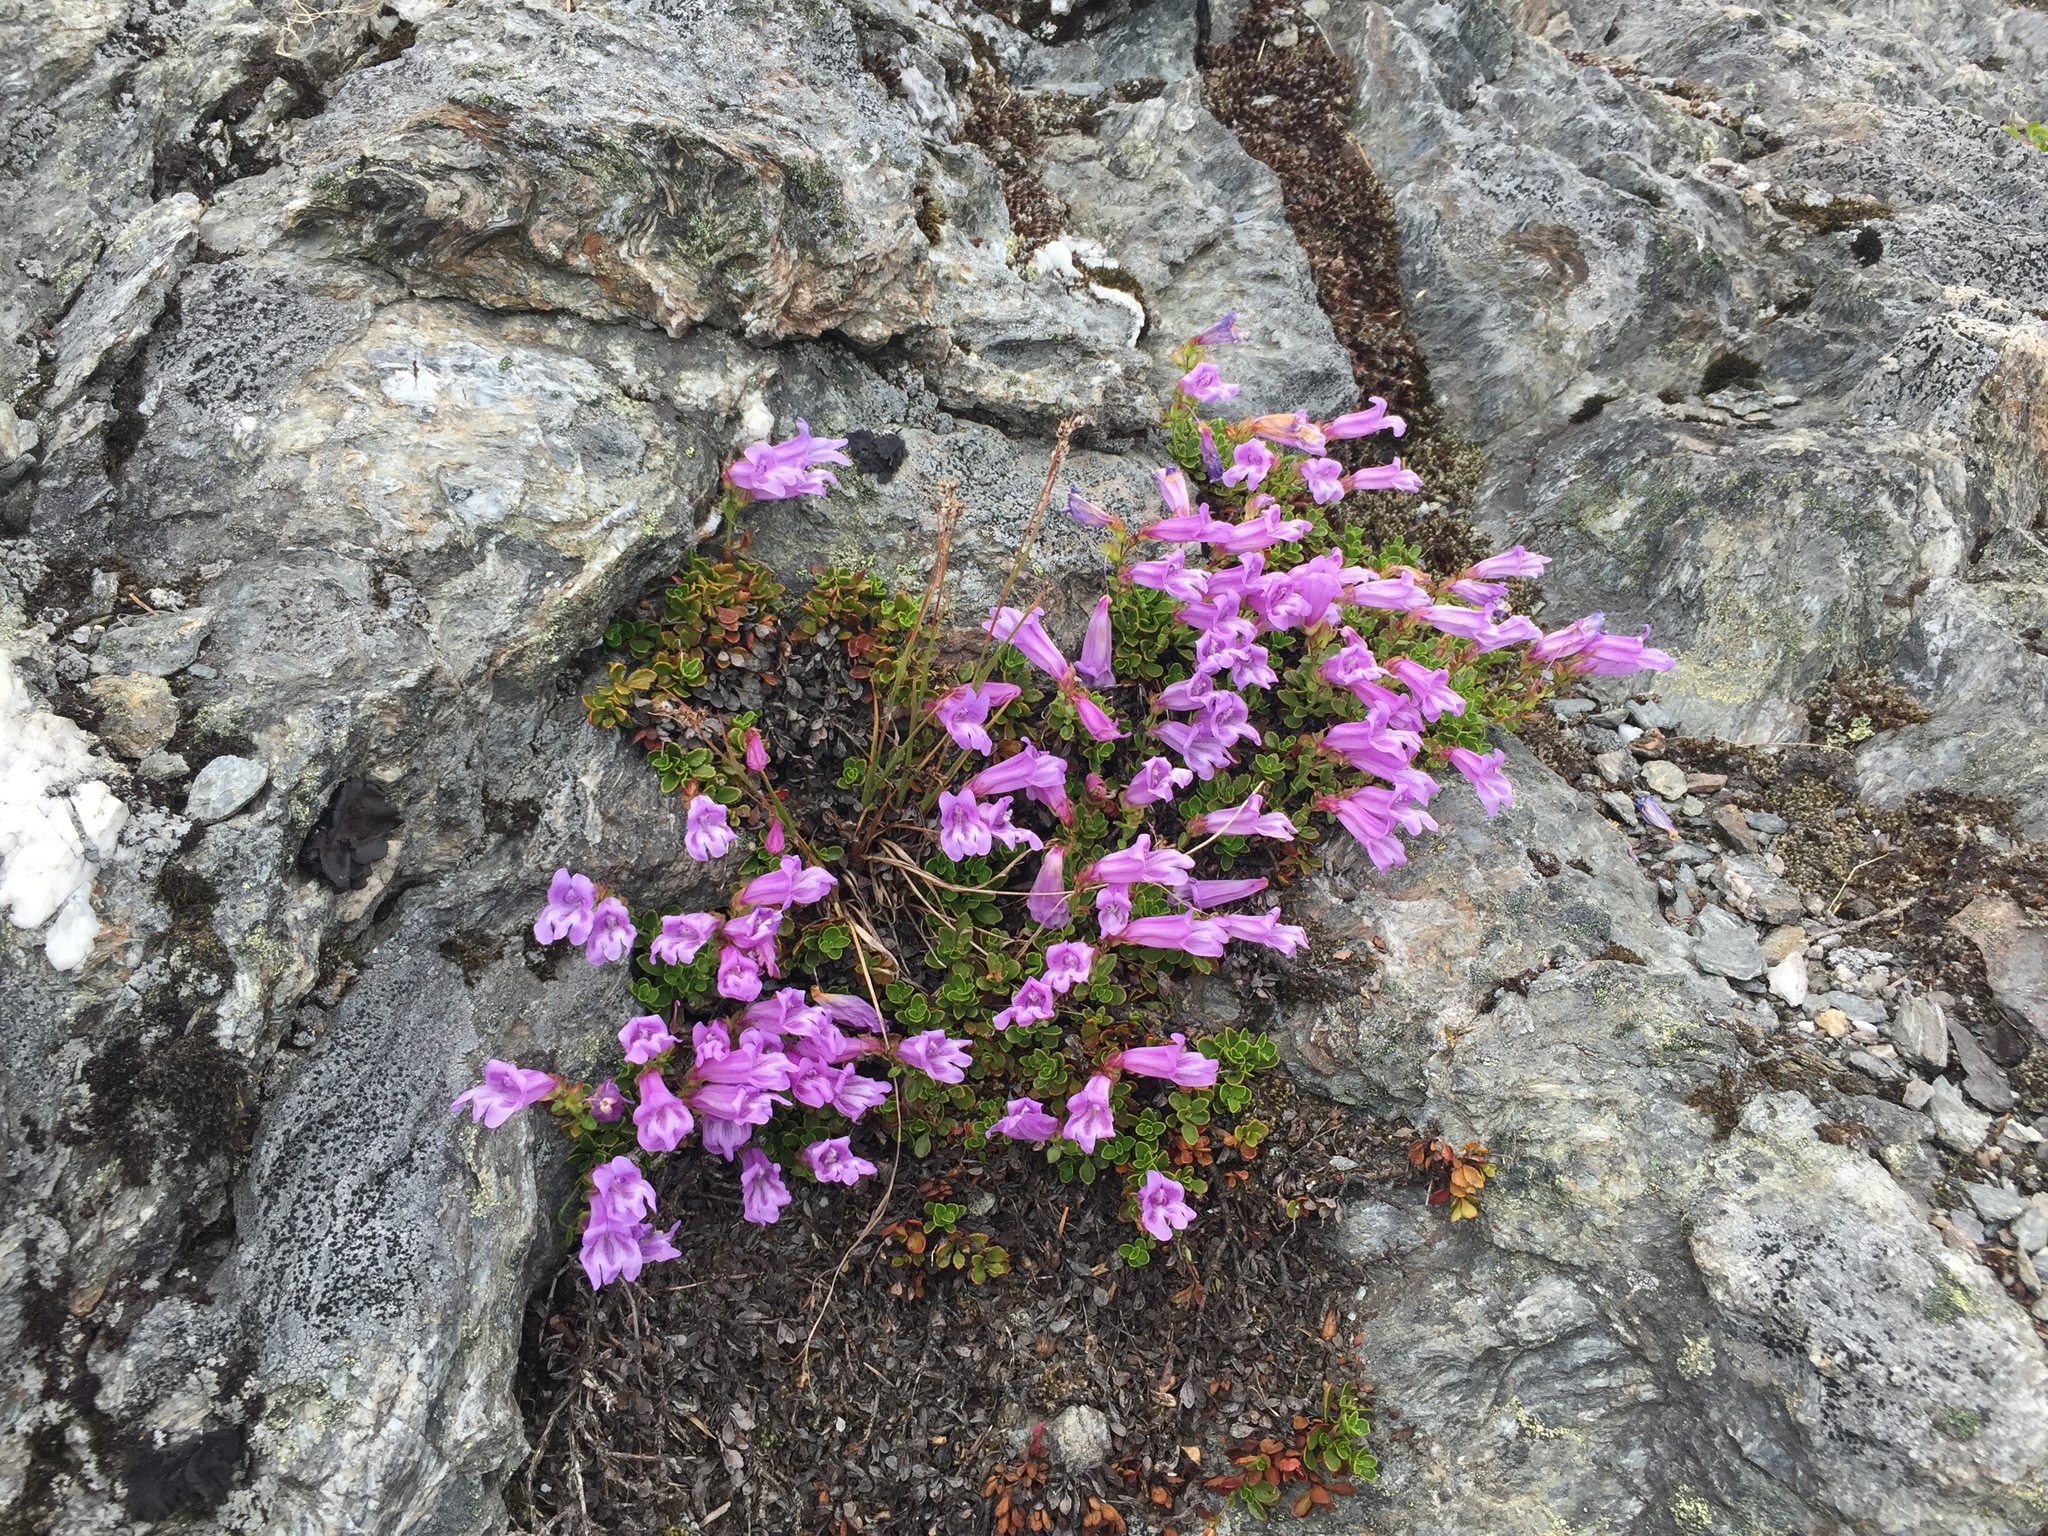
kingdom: Plantae
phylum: Tracheophyta
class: Magnoliopsida
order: Lamiales
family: Plantaginaceae
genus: Penstemon
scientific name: Penstemon davidsonii
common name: Davidson's penstemon
